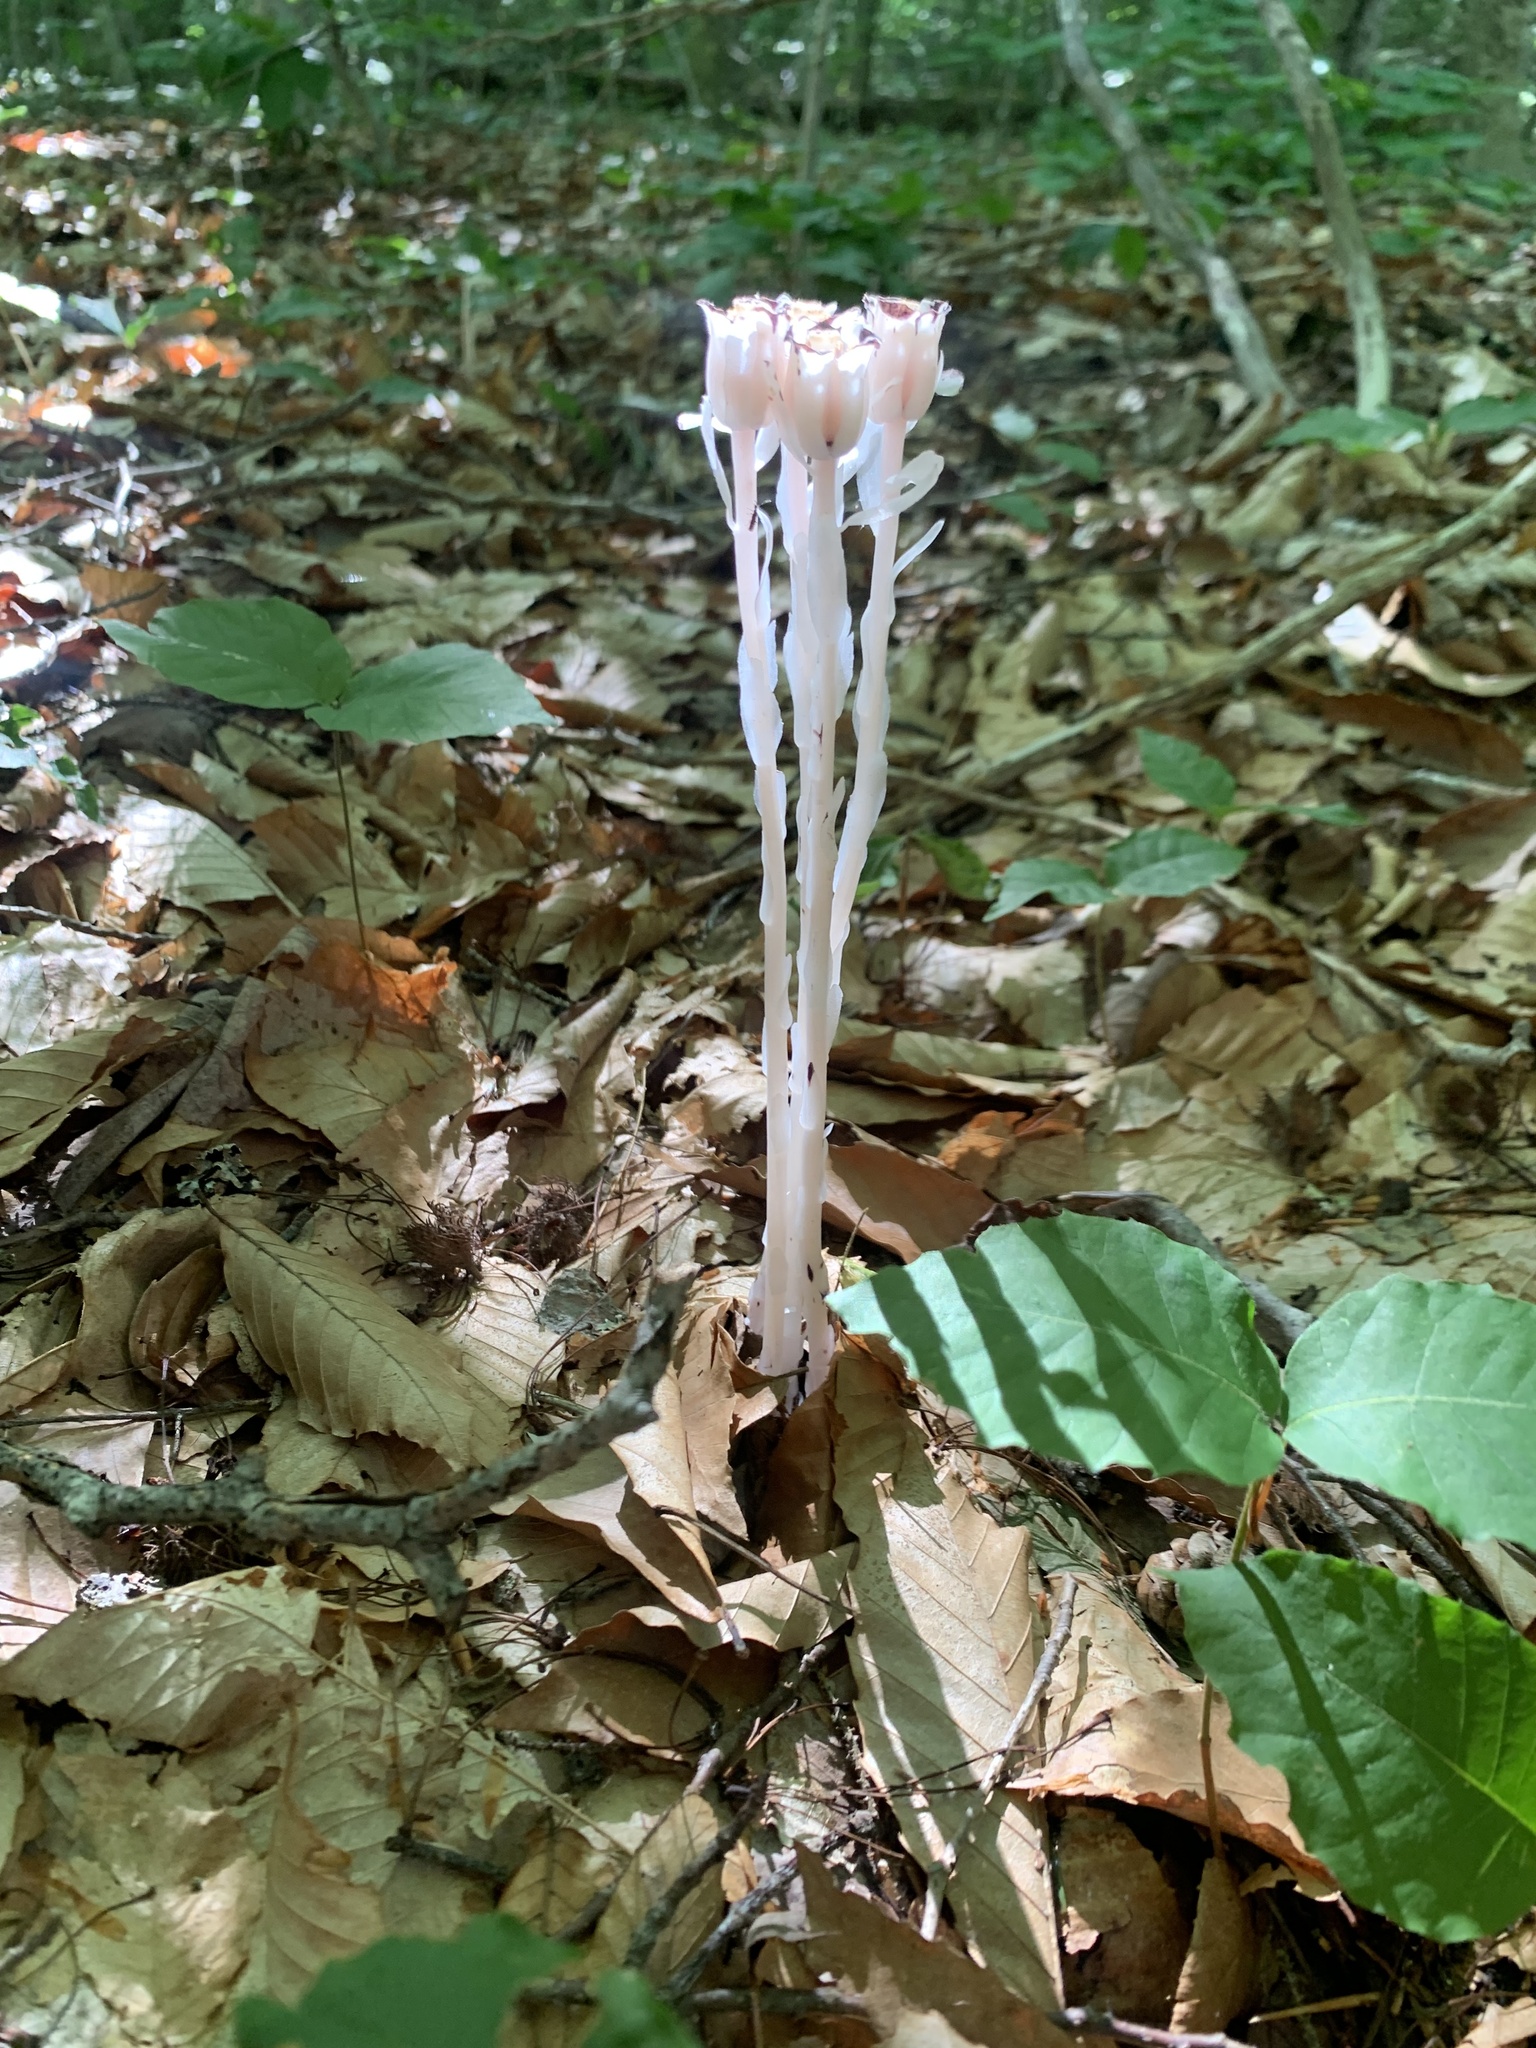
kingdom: Plantae
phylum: Tracheophyta
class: Magnoliopsida
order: Ericales
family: Ericaceae
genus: Monotropa
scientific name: Monotropa uniflora
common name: Convulsion root
